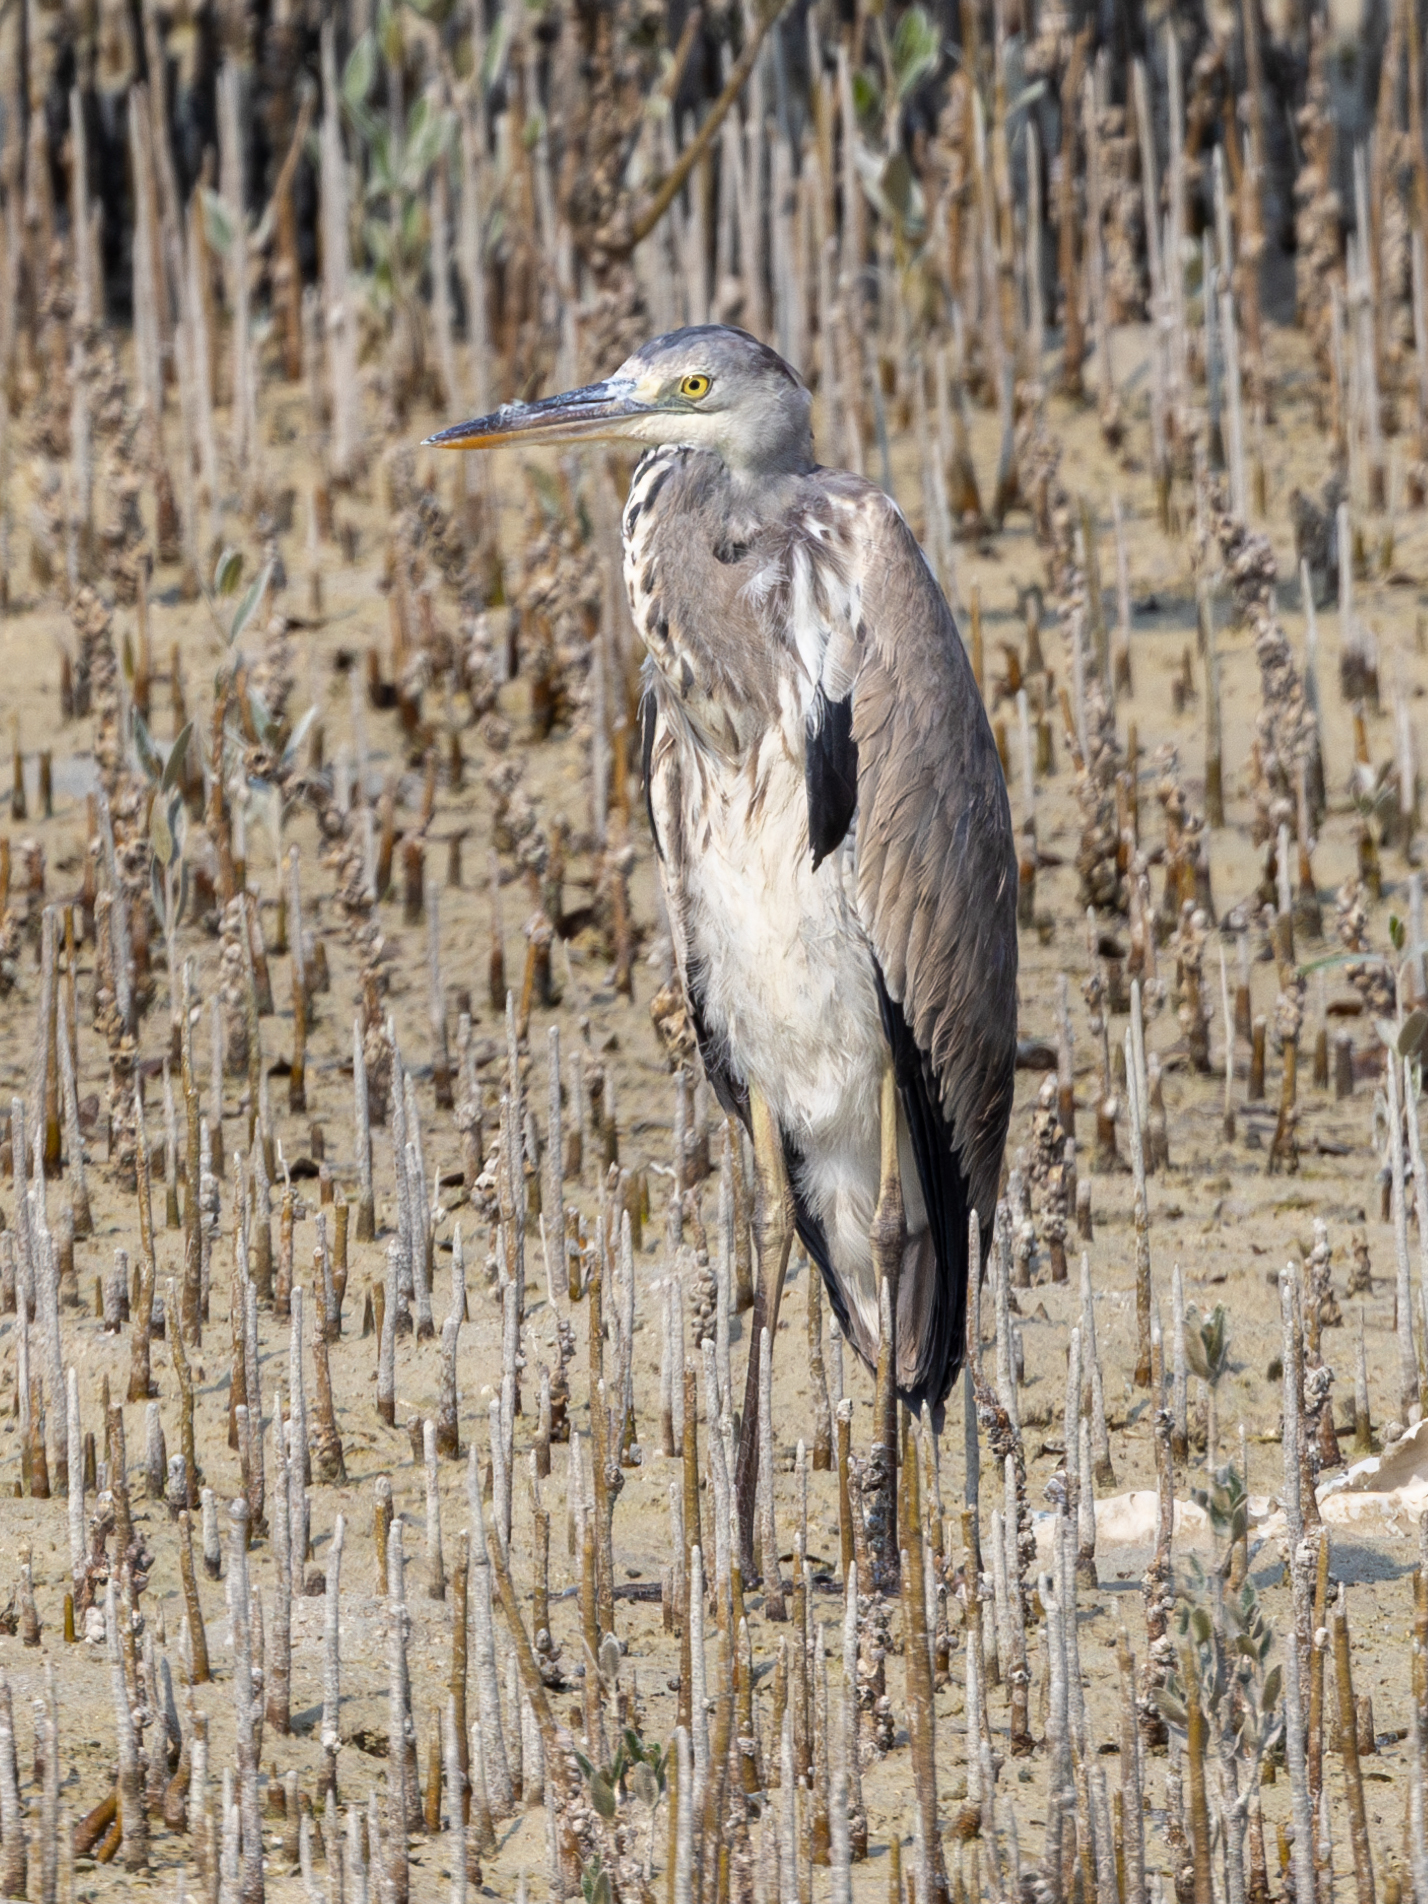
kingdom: Animalia
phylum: Chordata
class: Aves
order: Pelecaniformes
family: Ardeidae
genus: Ardea
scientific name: Ardea cinerea
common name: Grey heron
